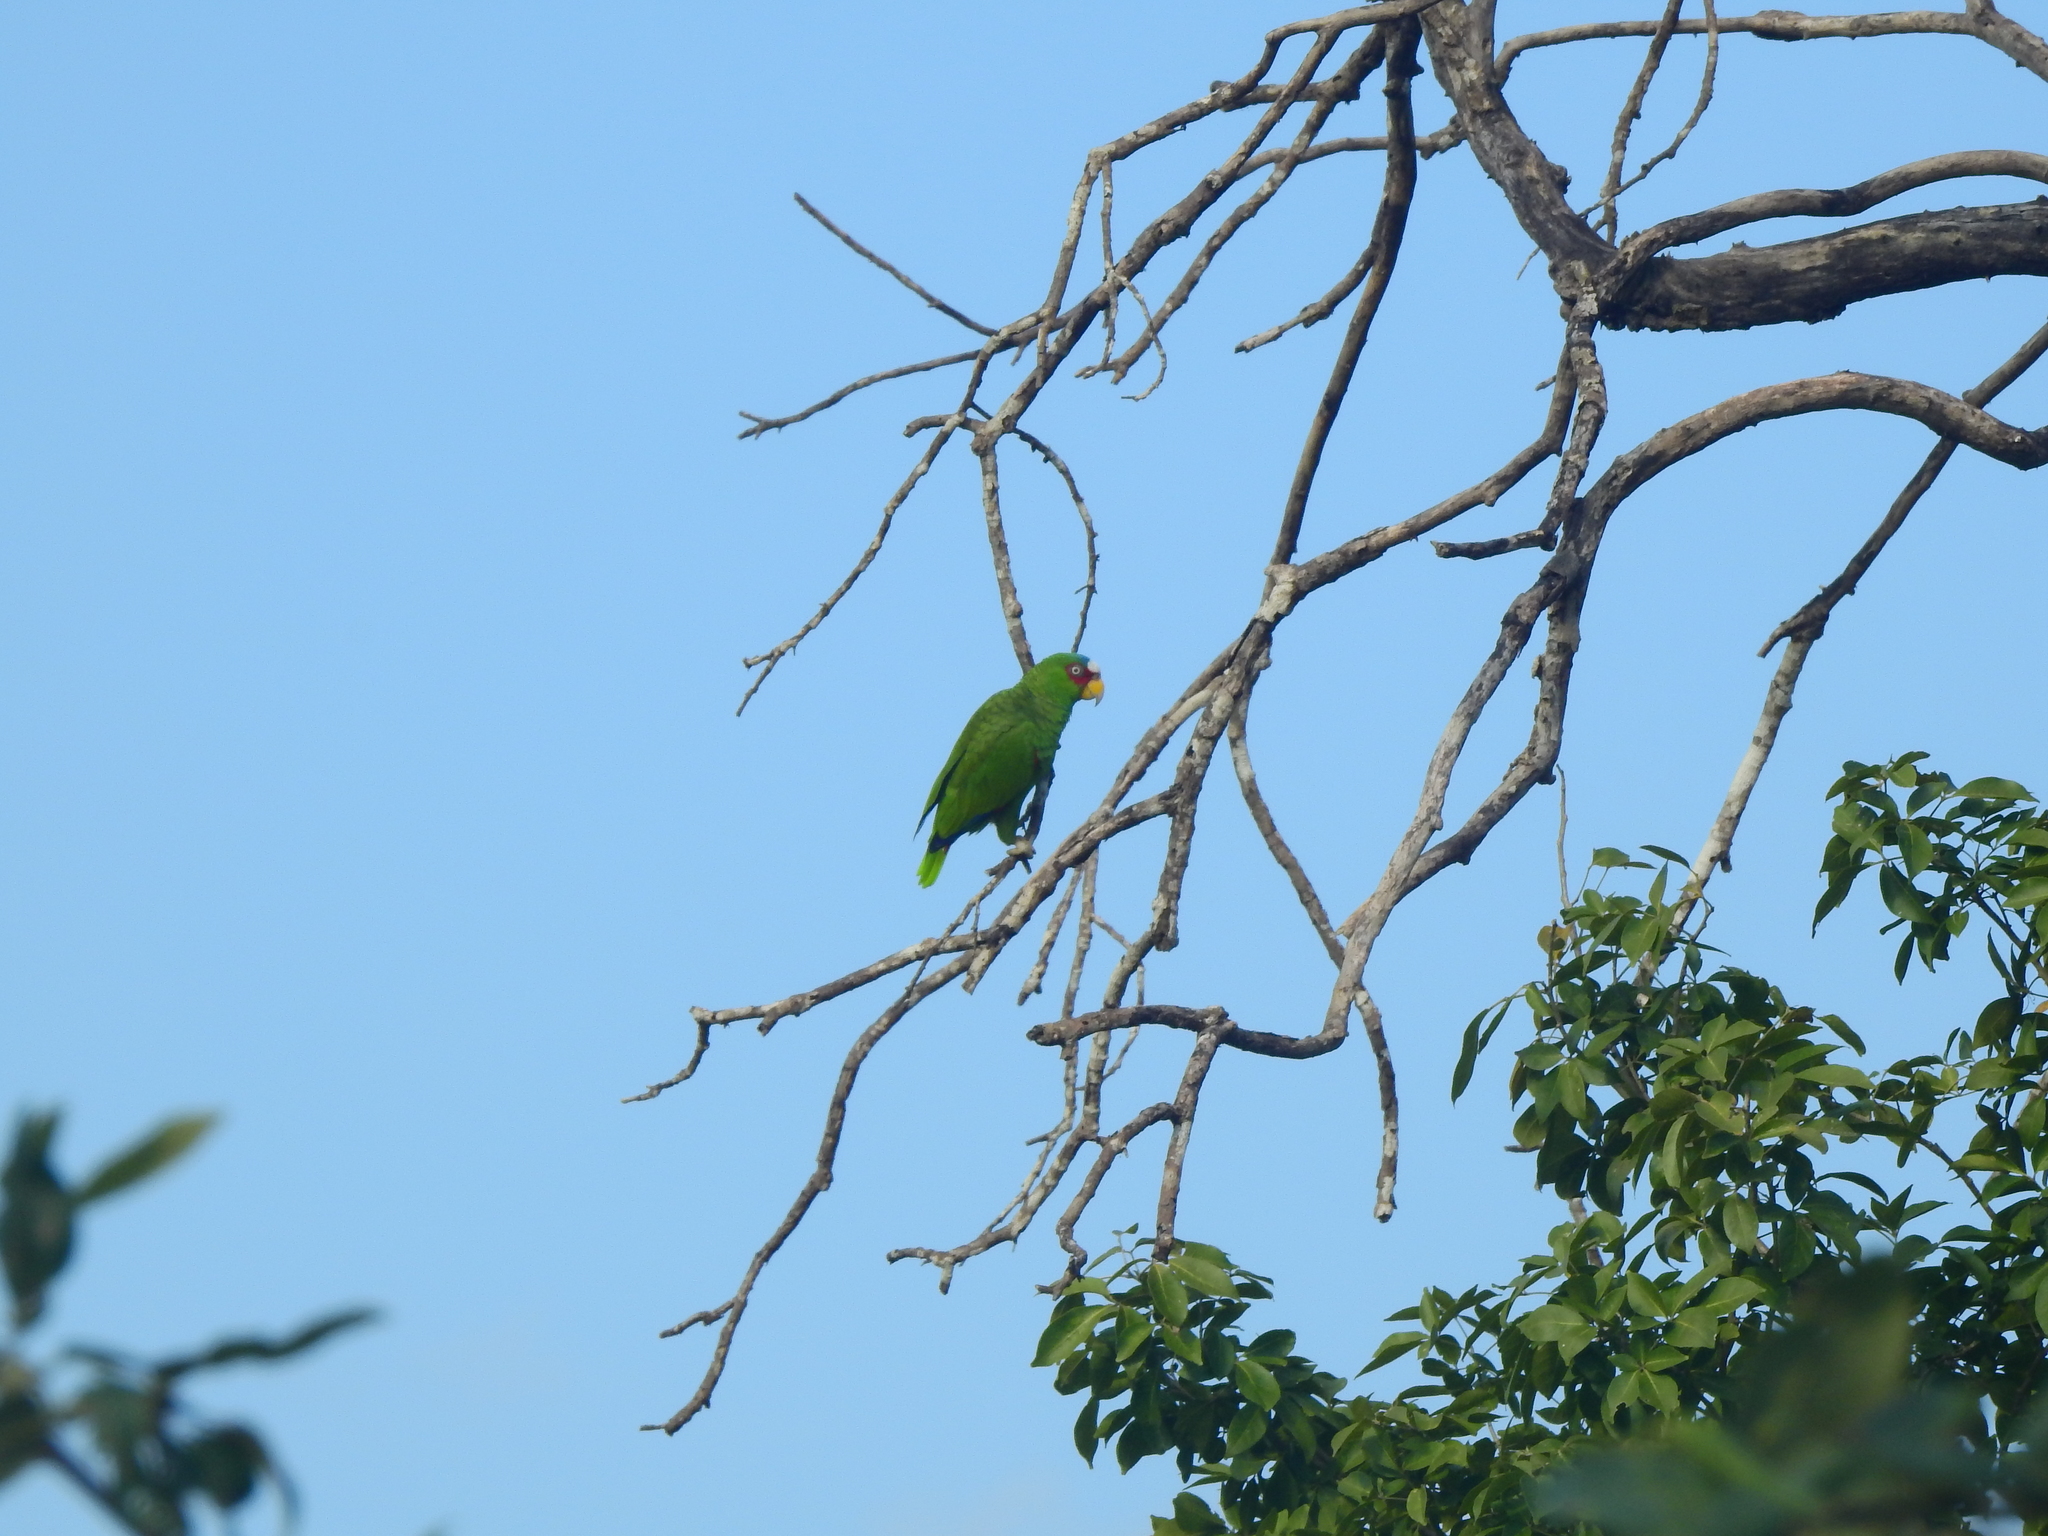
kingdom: Animalia
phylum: Chordata
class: Aves
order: Psittaciformes
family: Psittacidae
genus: Amazona
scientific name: Amazona albifrons
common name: White-fronted amazon
